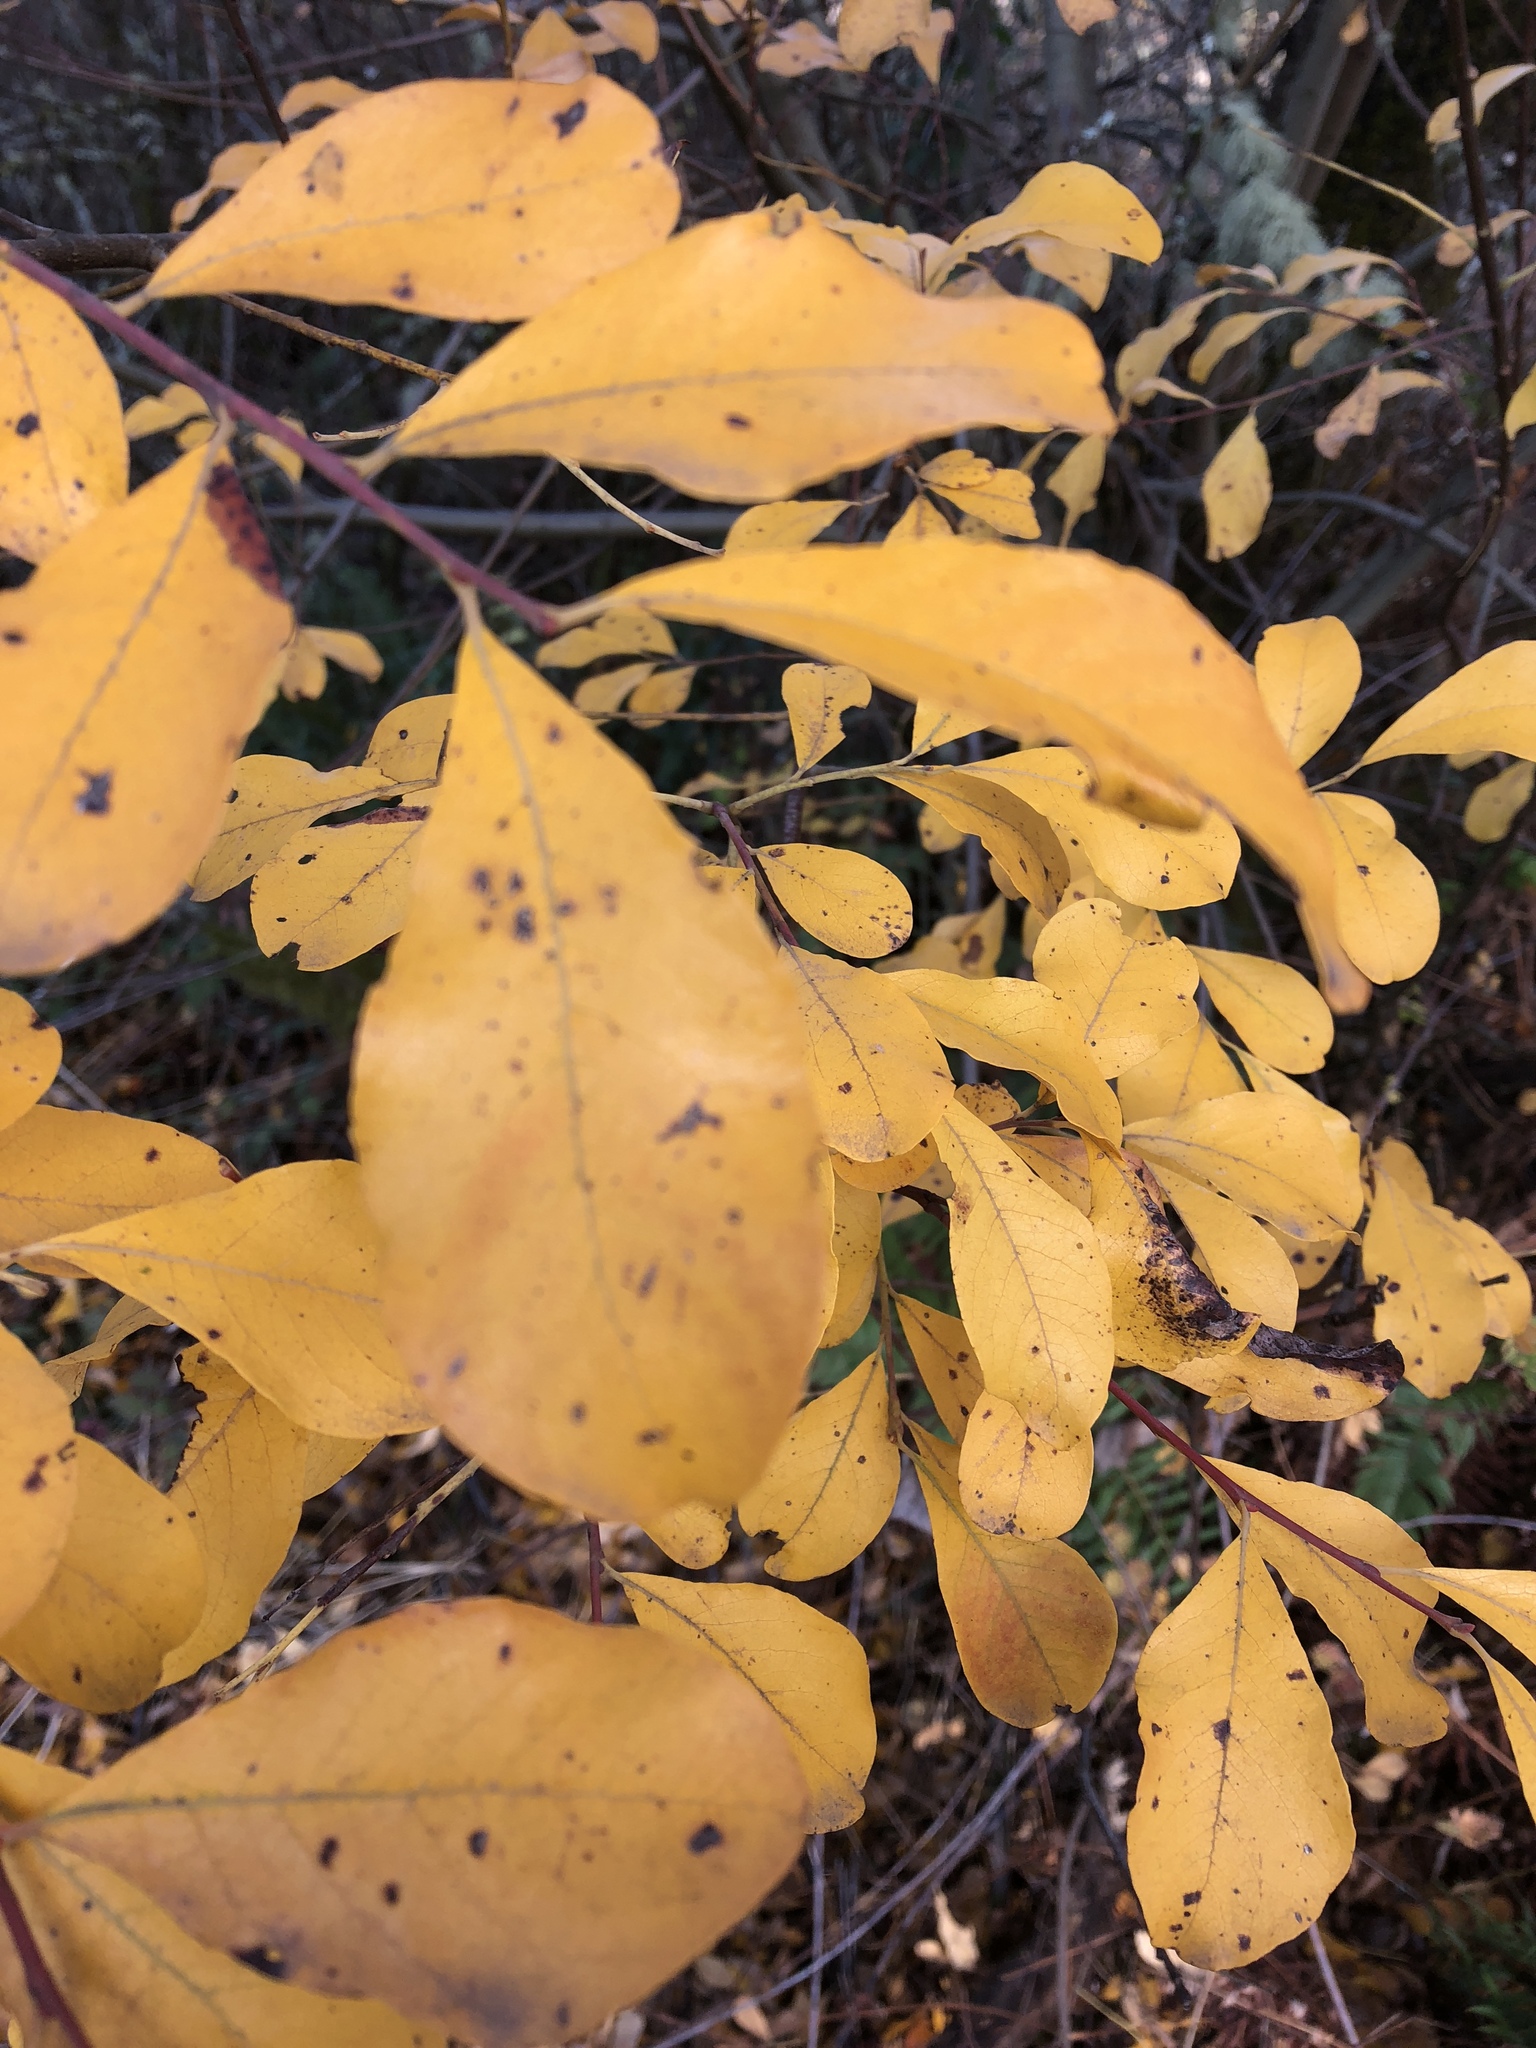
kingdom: Plantae
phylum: Tracheophyta
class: Magnoliopsida
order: Malpighiales
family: Salicaceae
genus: Salix
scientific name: Salix scouleriana
